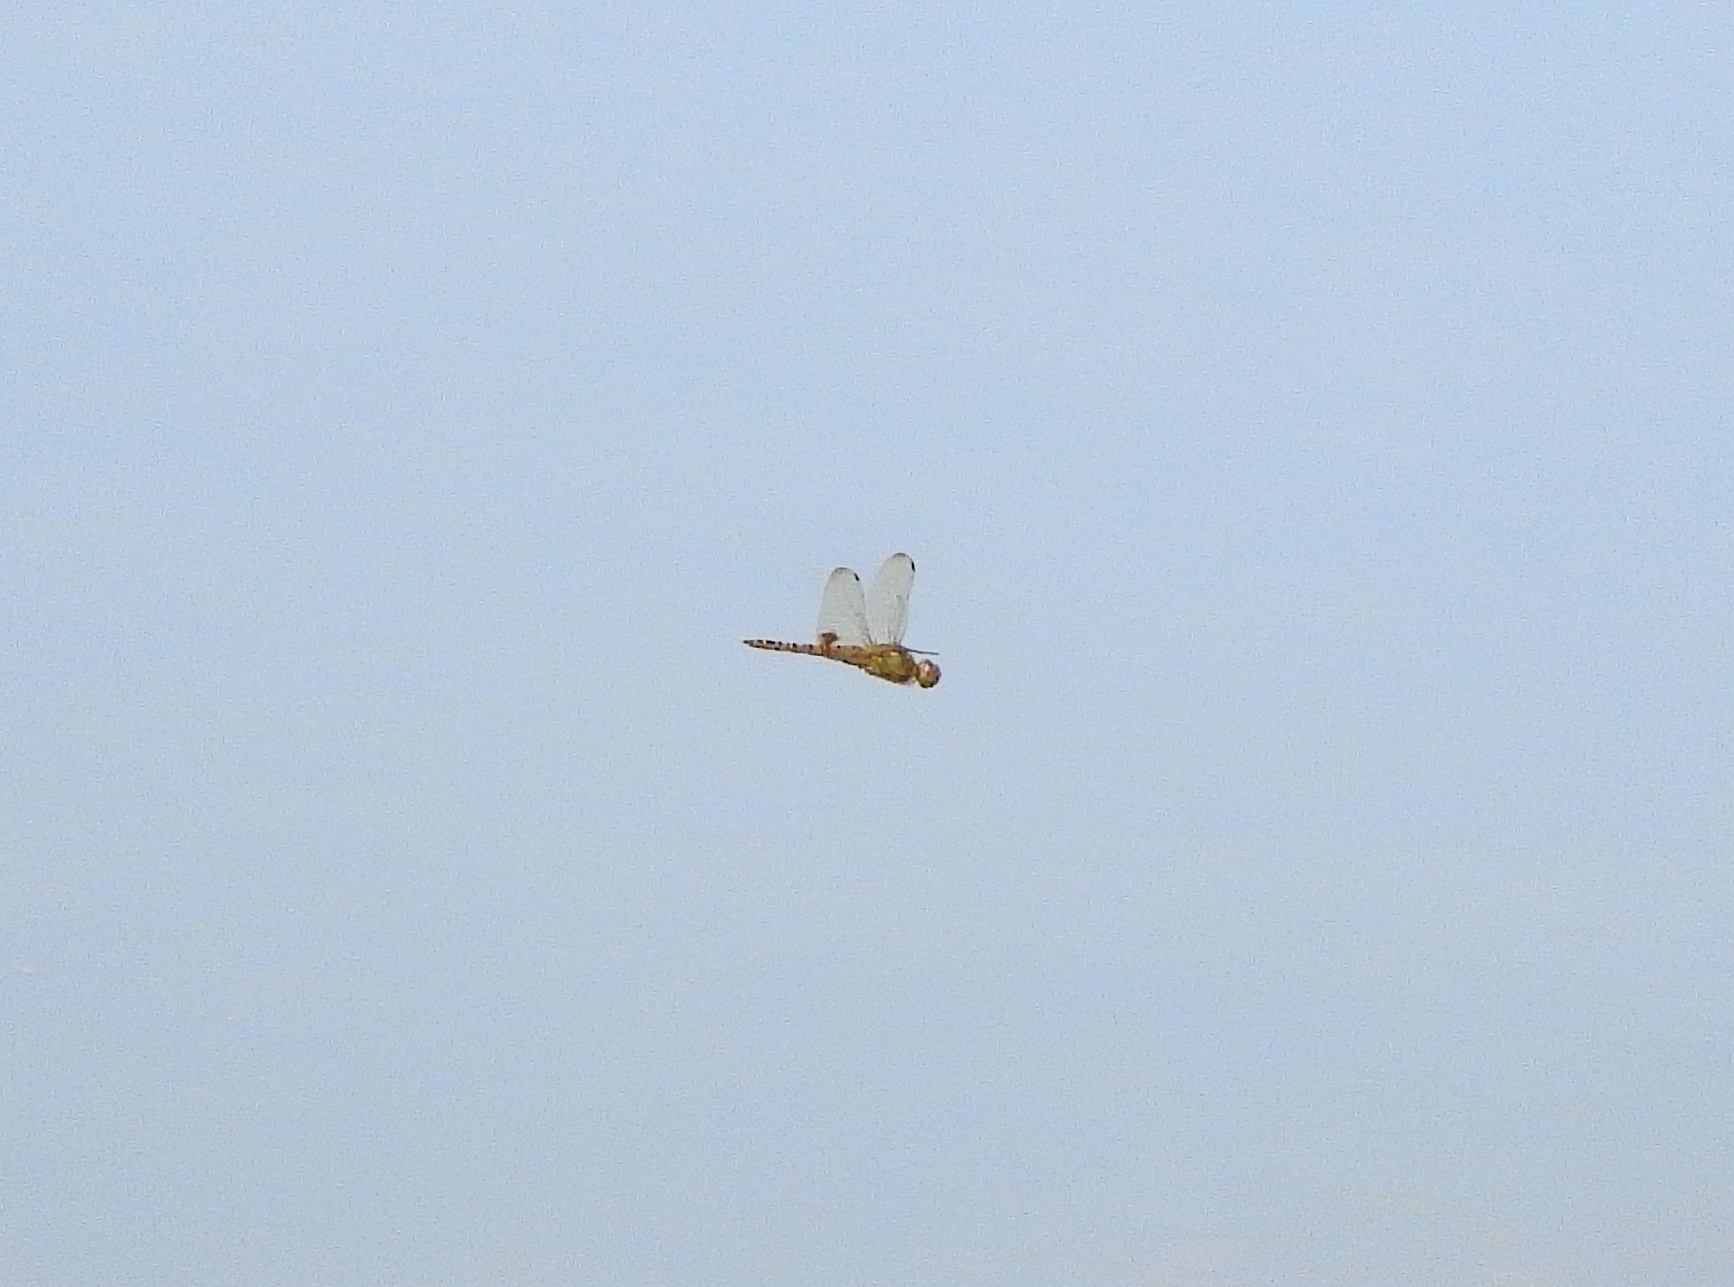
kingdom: Animalia
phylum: Arthropoda
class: Insecta
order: Odonata
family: Libellulidae
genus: Hydrobasileus
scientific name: Hydrobasileus croceus
